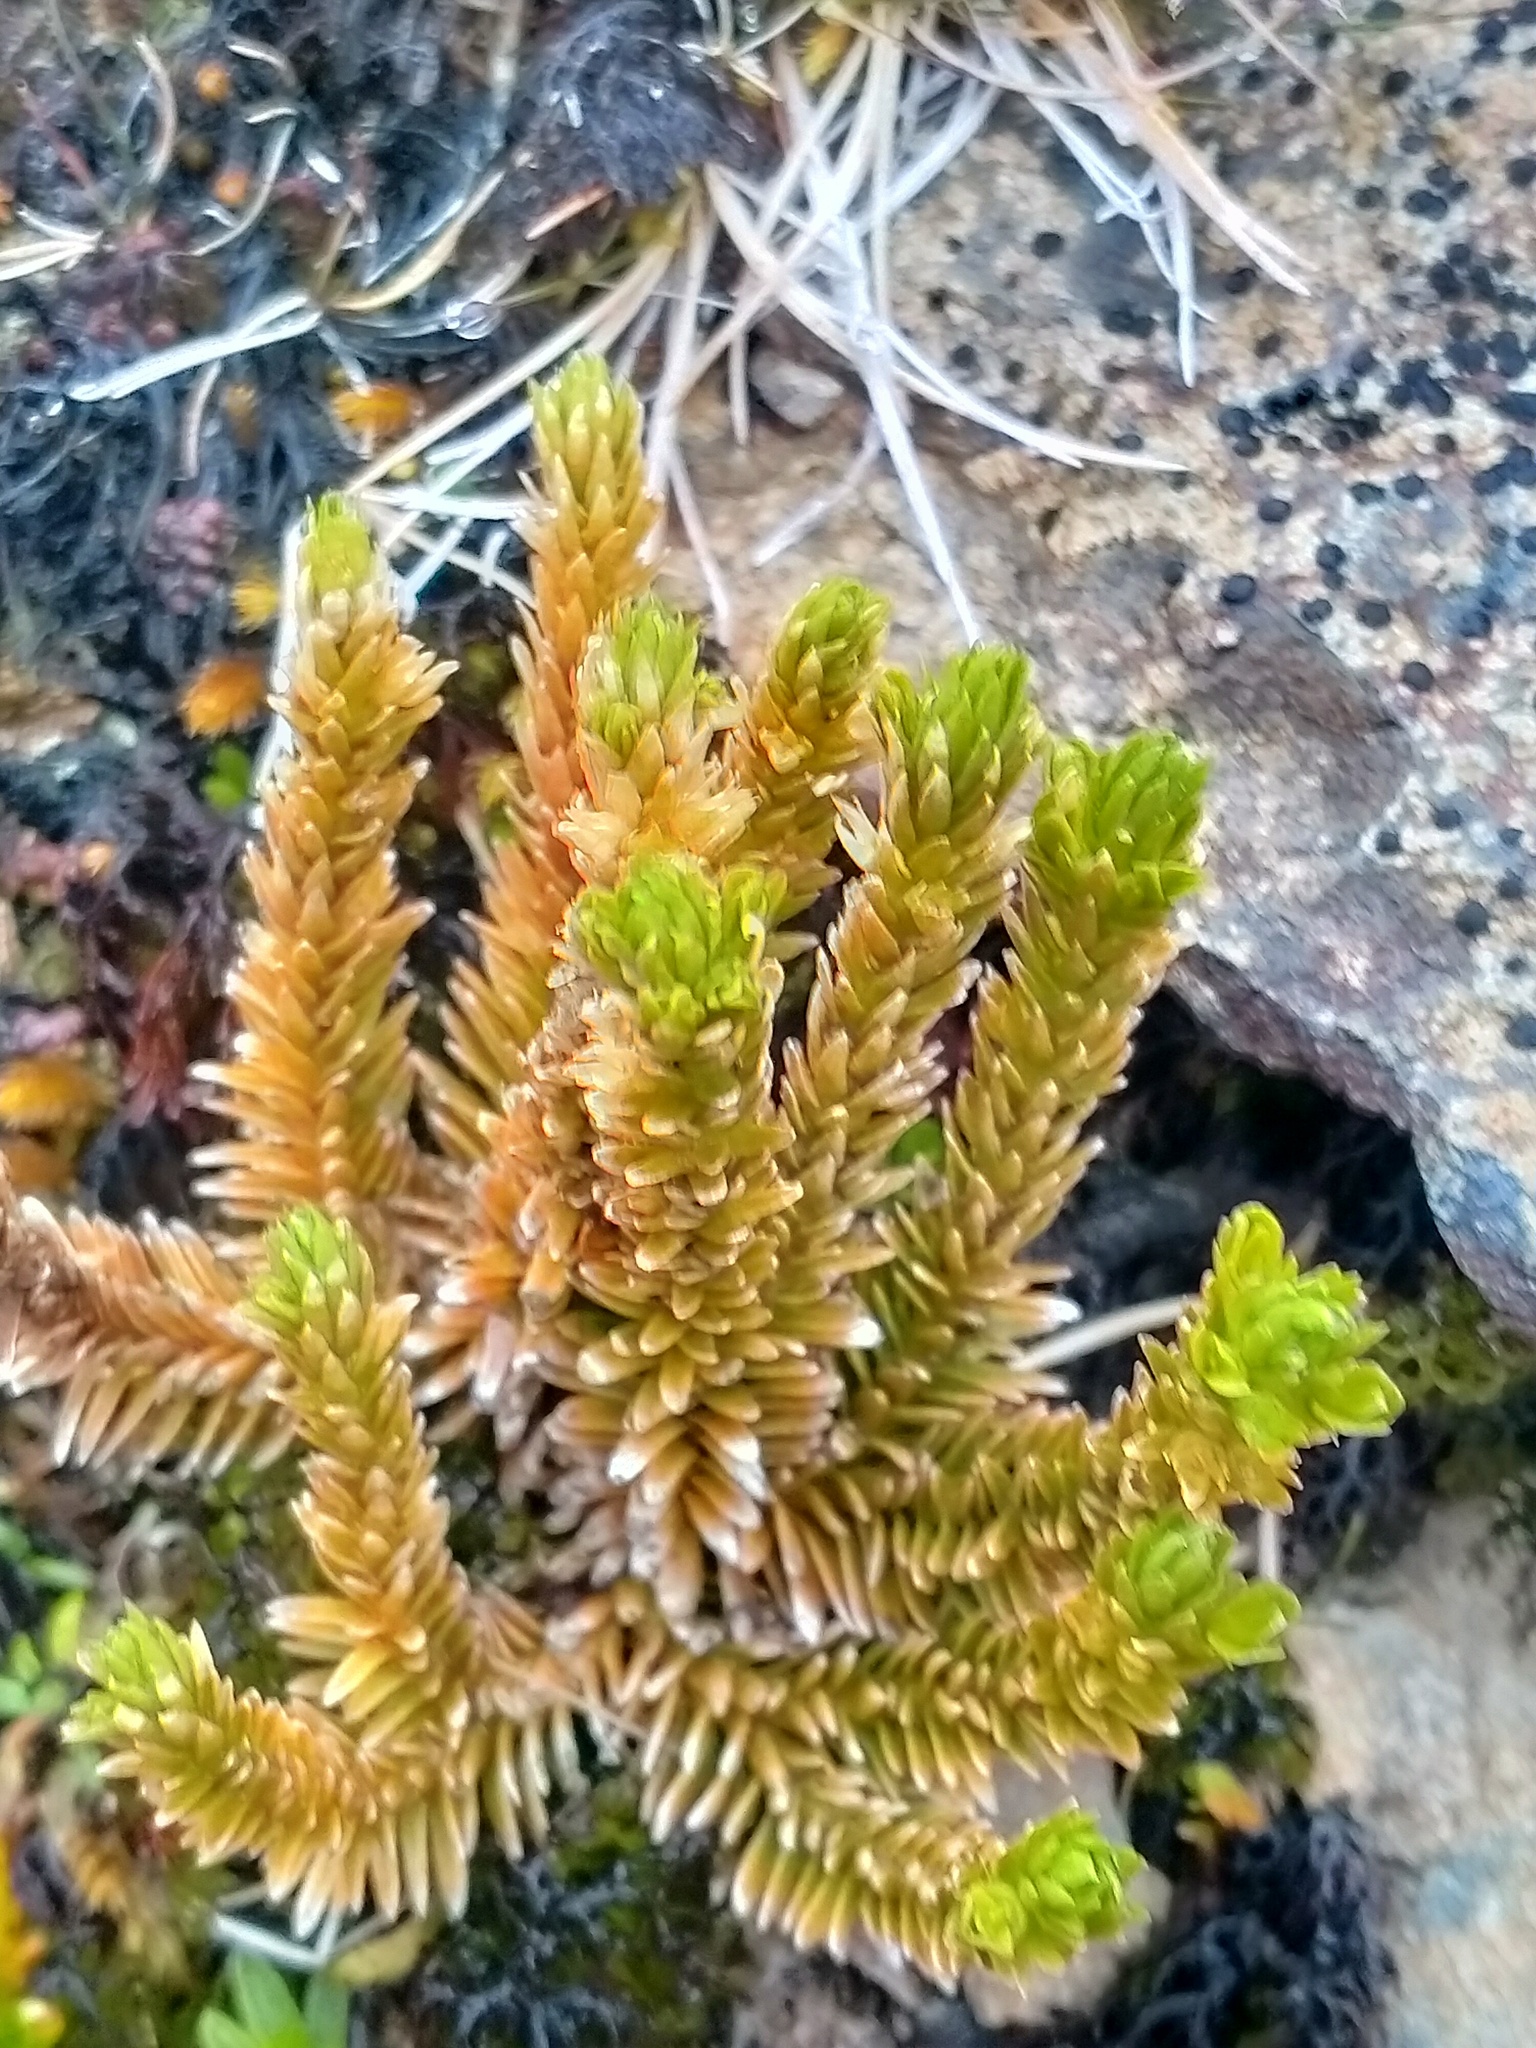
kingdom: Plantae
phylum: Tracheophyta
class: Lycopodiopsida
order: Lycopodiales
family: Lycopodiaceae
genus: Huperzia
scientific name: Huperzia australiana
